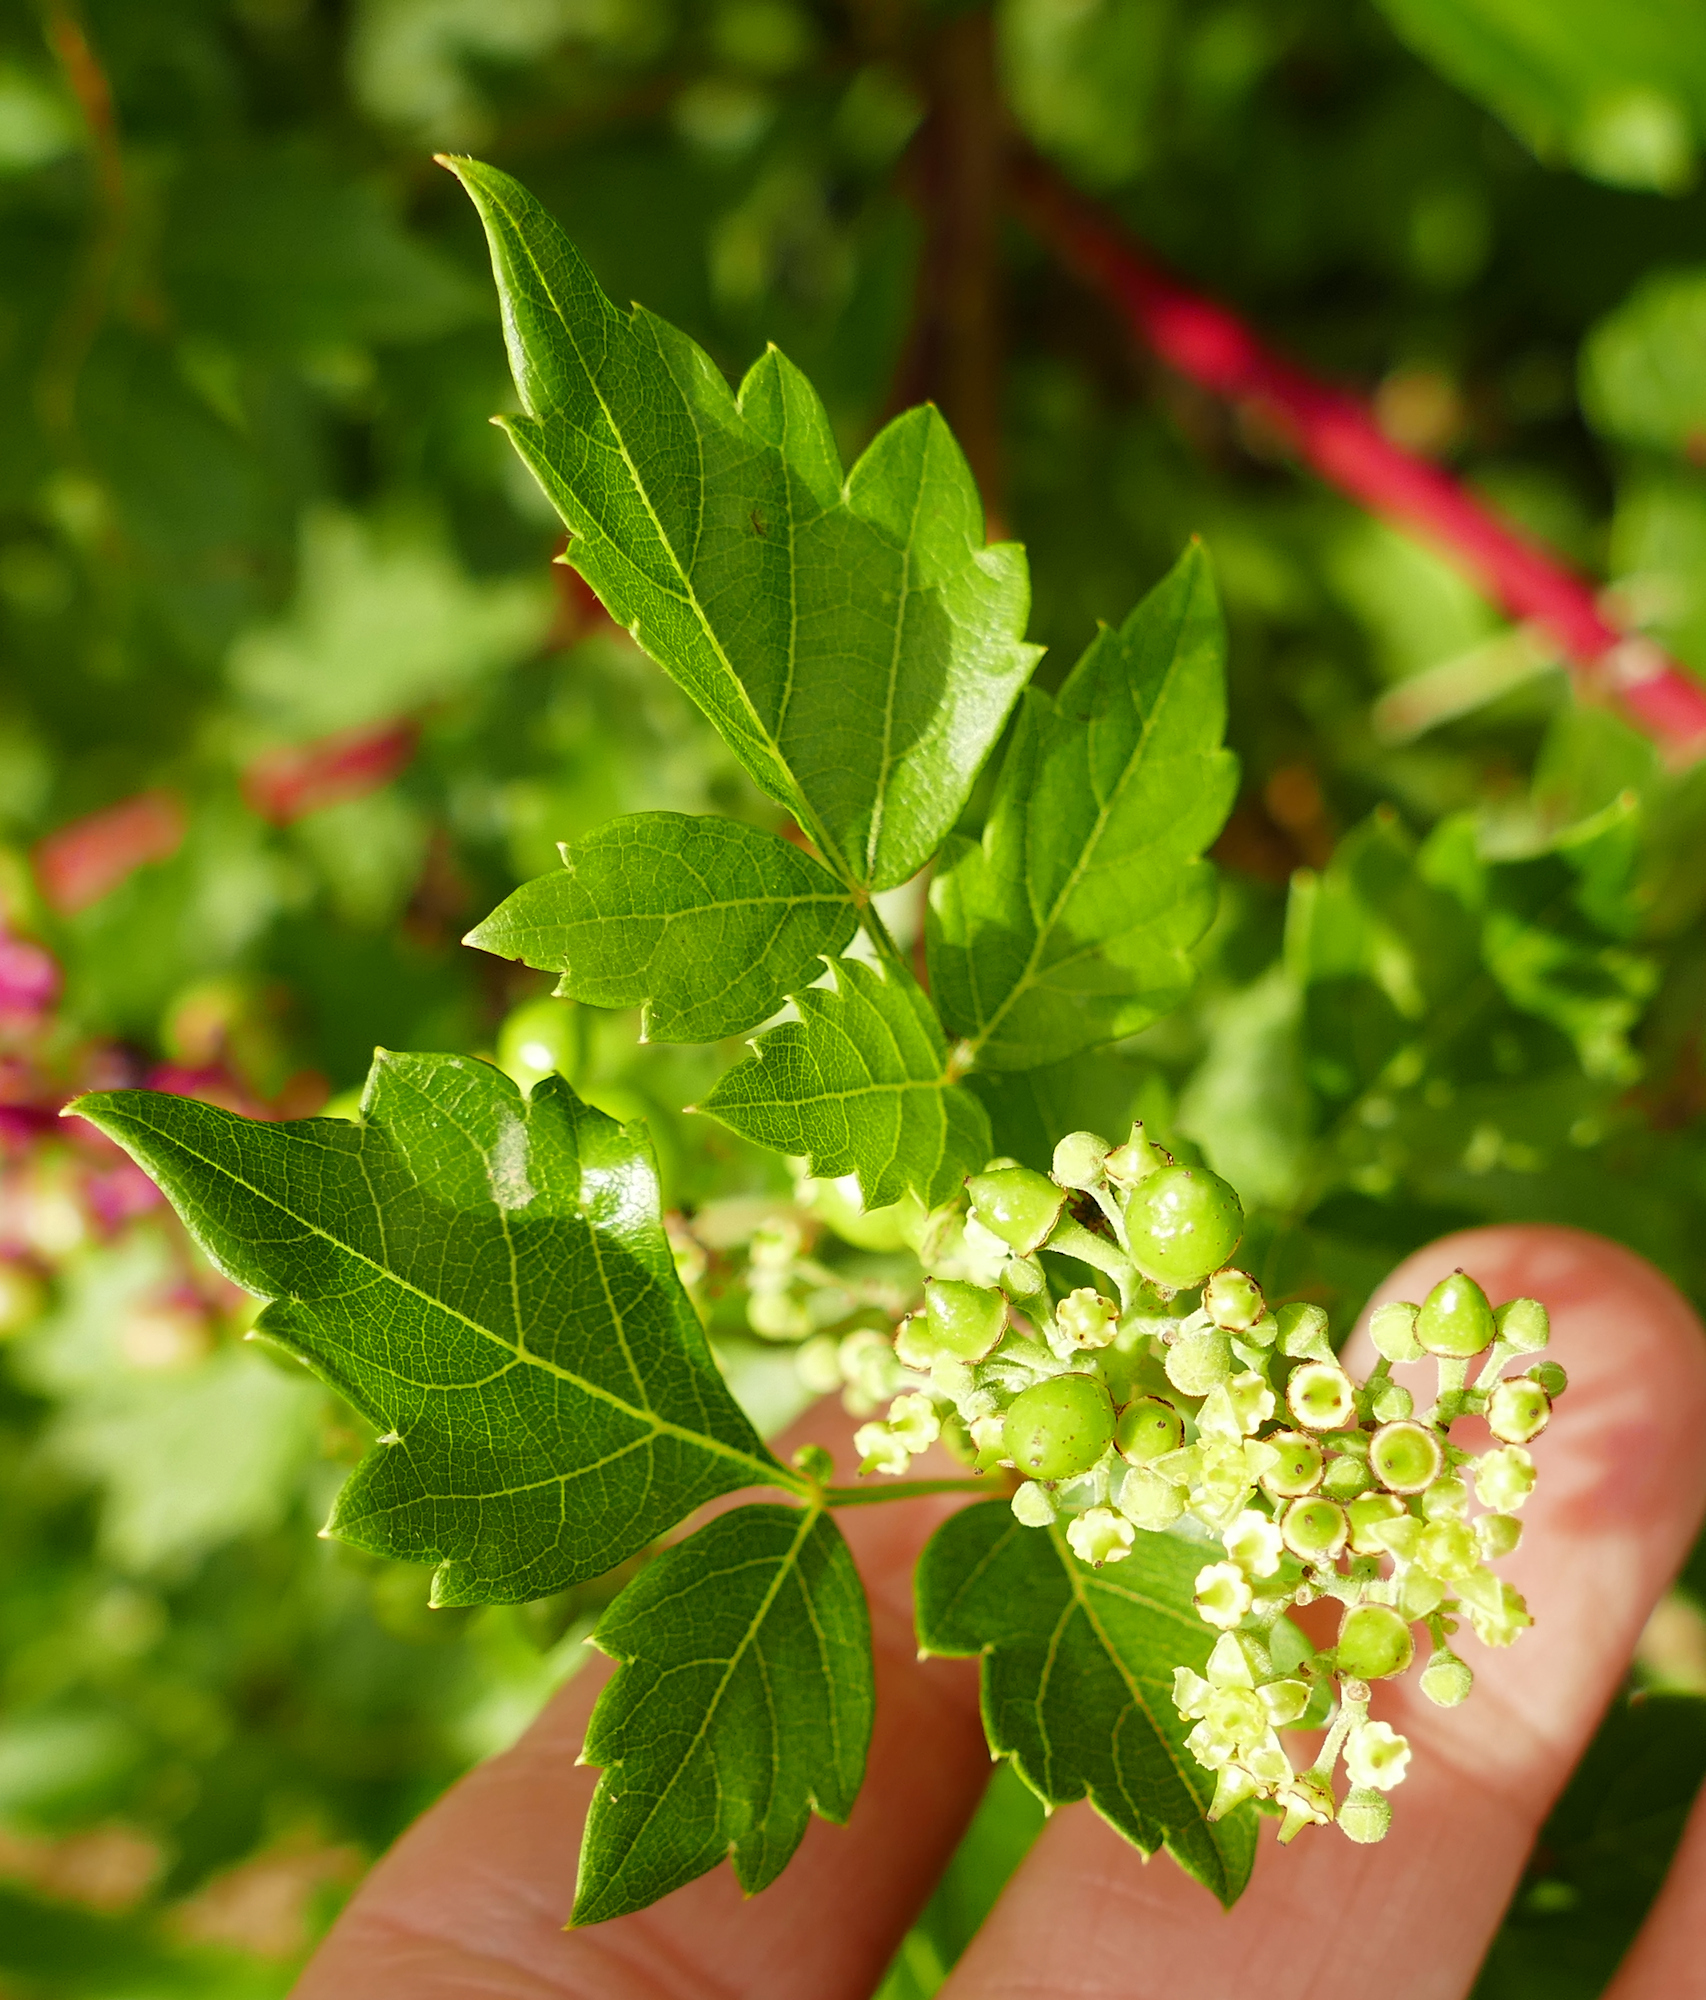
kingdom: Plantae
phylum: Tracheophyta
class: Magnoliopsida
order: Vitales
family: Vitaceae
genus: Nekemias
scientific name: Nekemias arborea
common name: Peppervine
